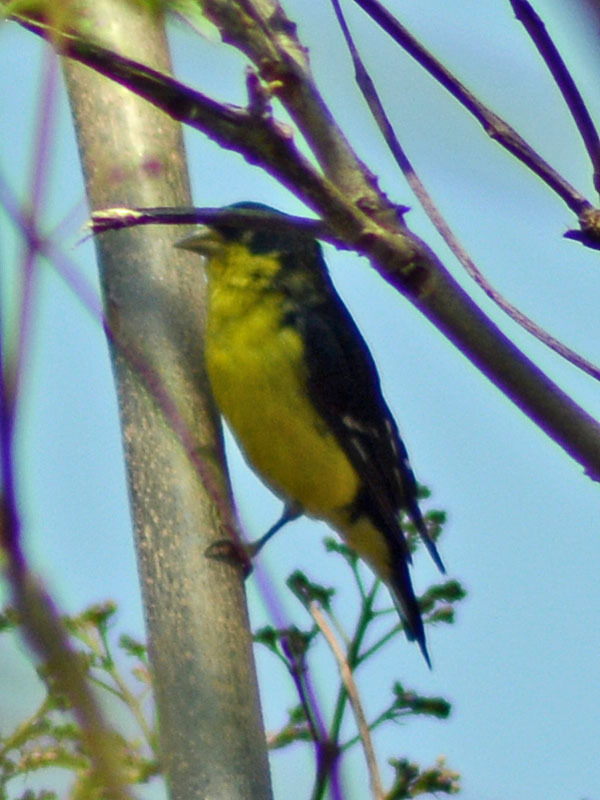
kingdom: Animalia
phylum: Chordata
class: Aves
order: Passeriformes
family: Fringillidae
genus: Spinus
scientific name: Spinus psaltria
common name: Lesser goldfinch
